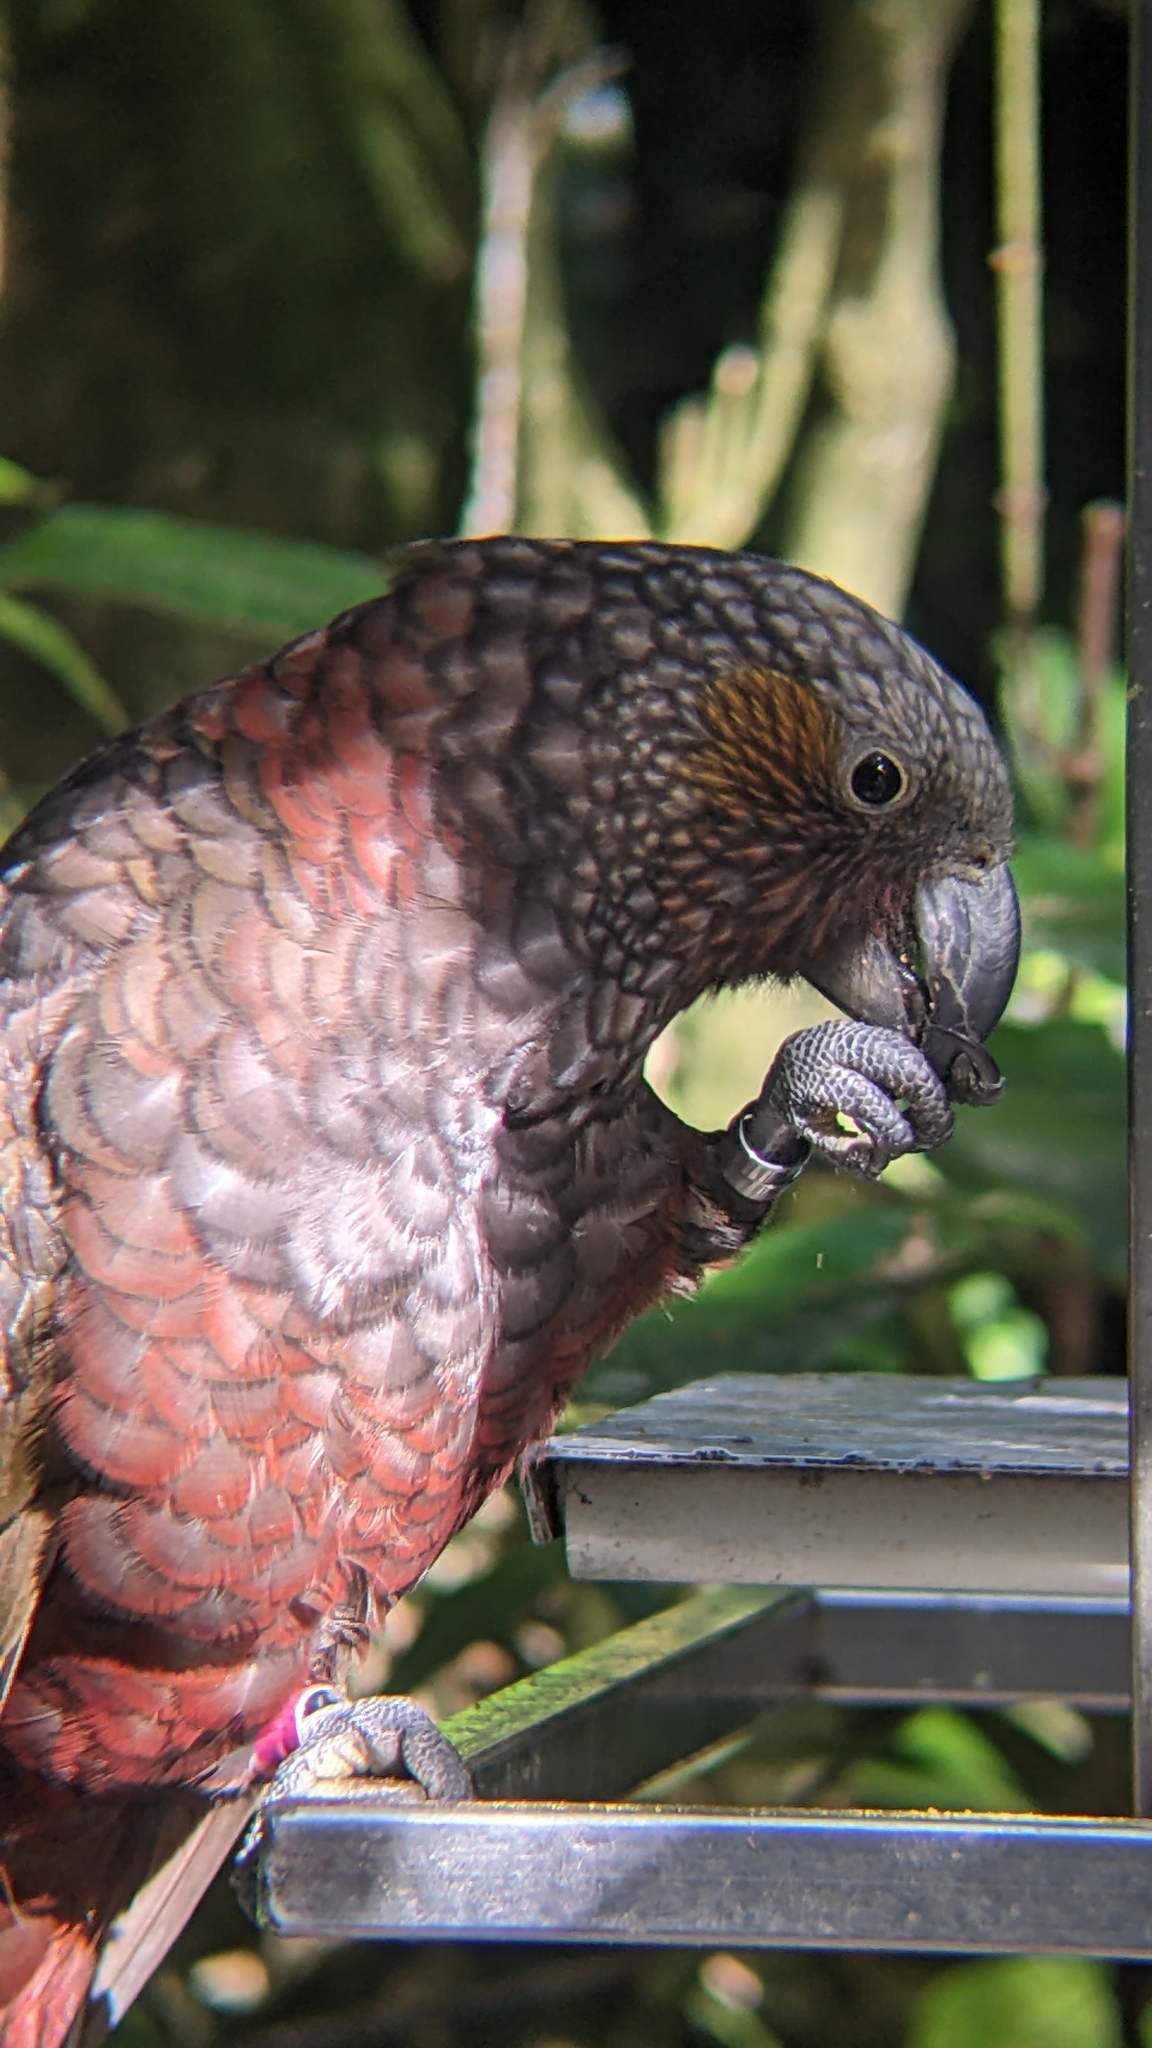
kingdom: Animalia
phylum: Chordata
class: Aves
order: Psittaciformes
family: Psittacidae
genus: Nestor
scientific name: Nestor meridionalis
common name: New zealand kaka
